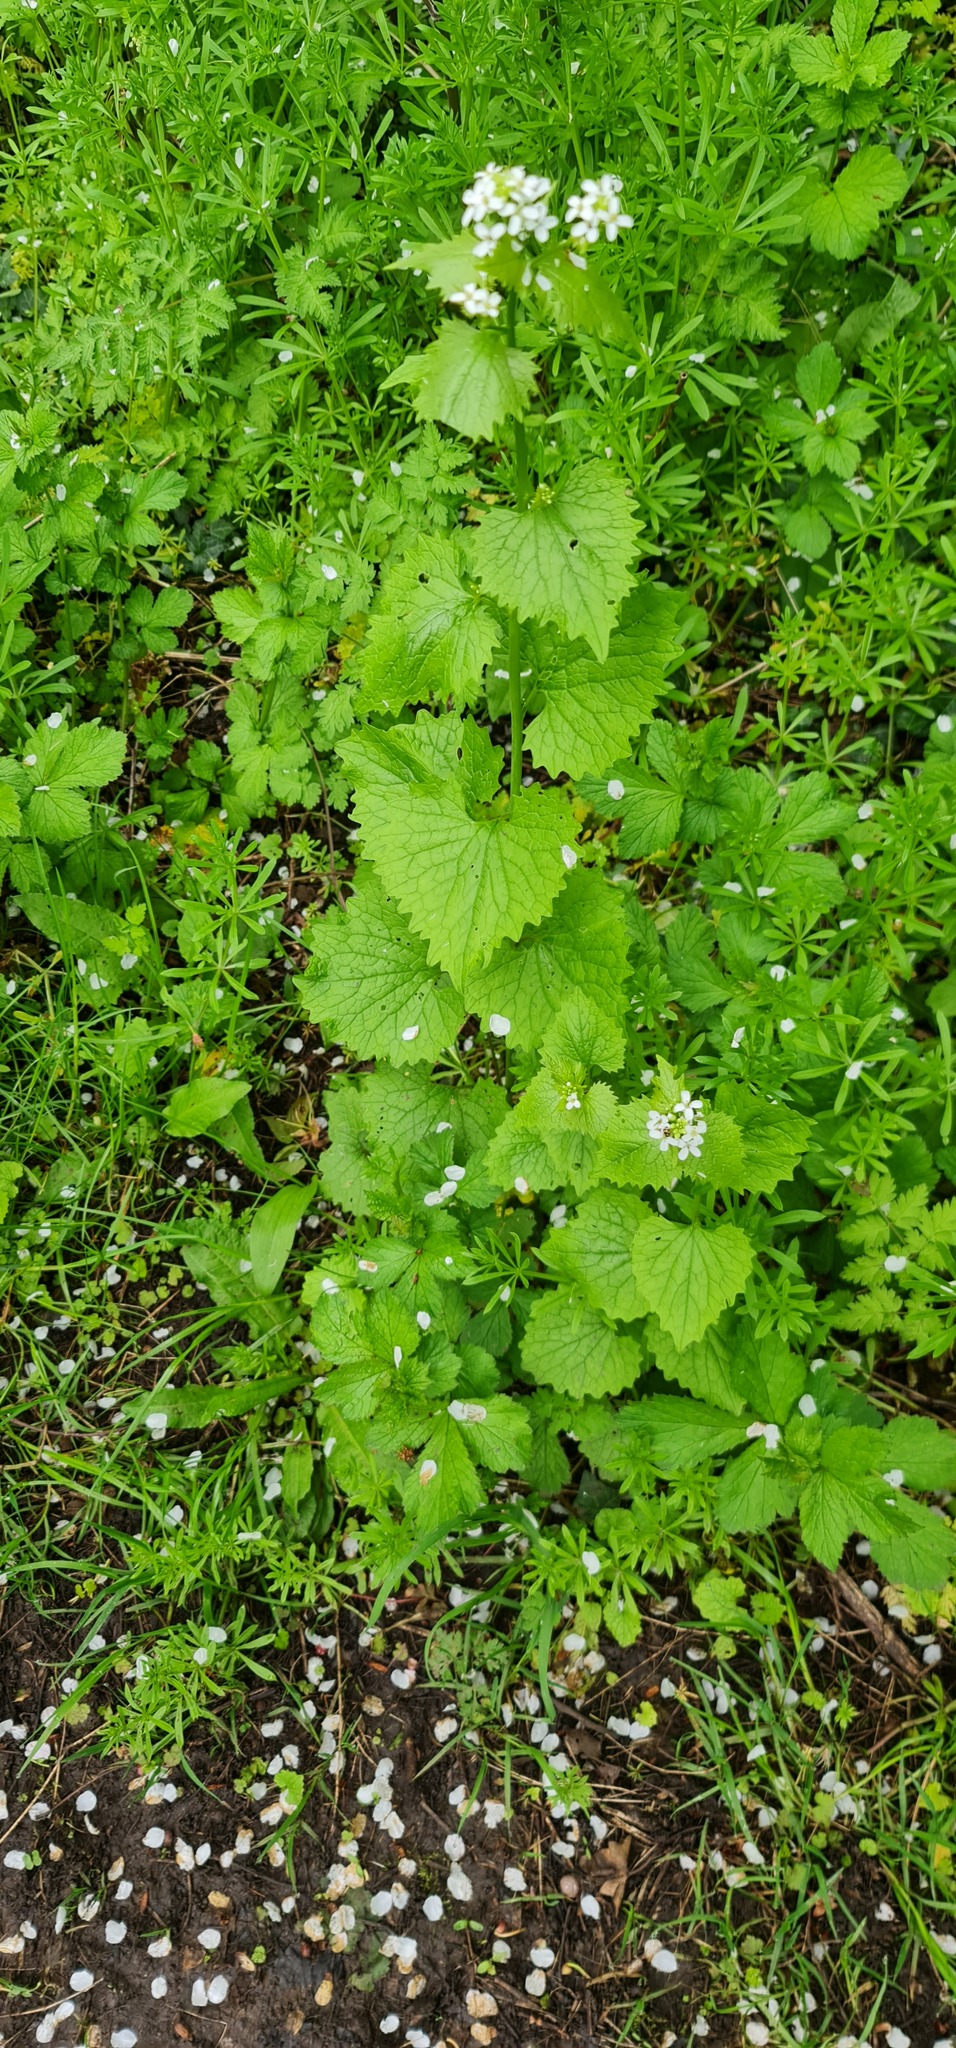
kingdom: Plantae
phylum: Tracheophyta
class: Magnoliopsida
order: Brassicales
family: Brassicaceae
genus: Alliaria
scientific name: Alliaria petiolata
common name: Garlic mustard
